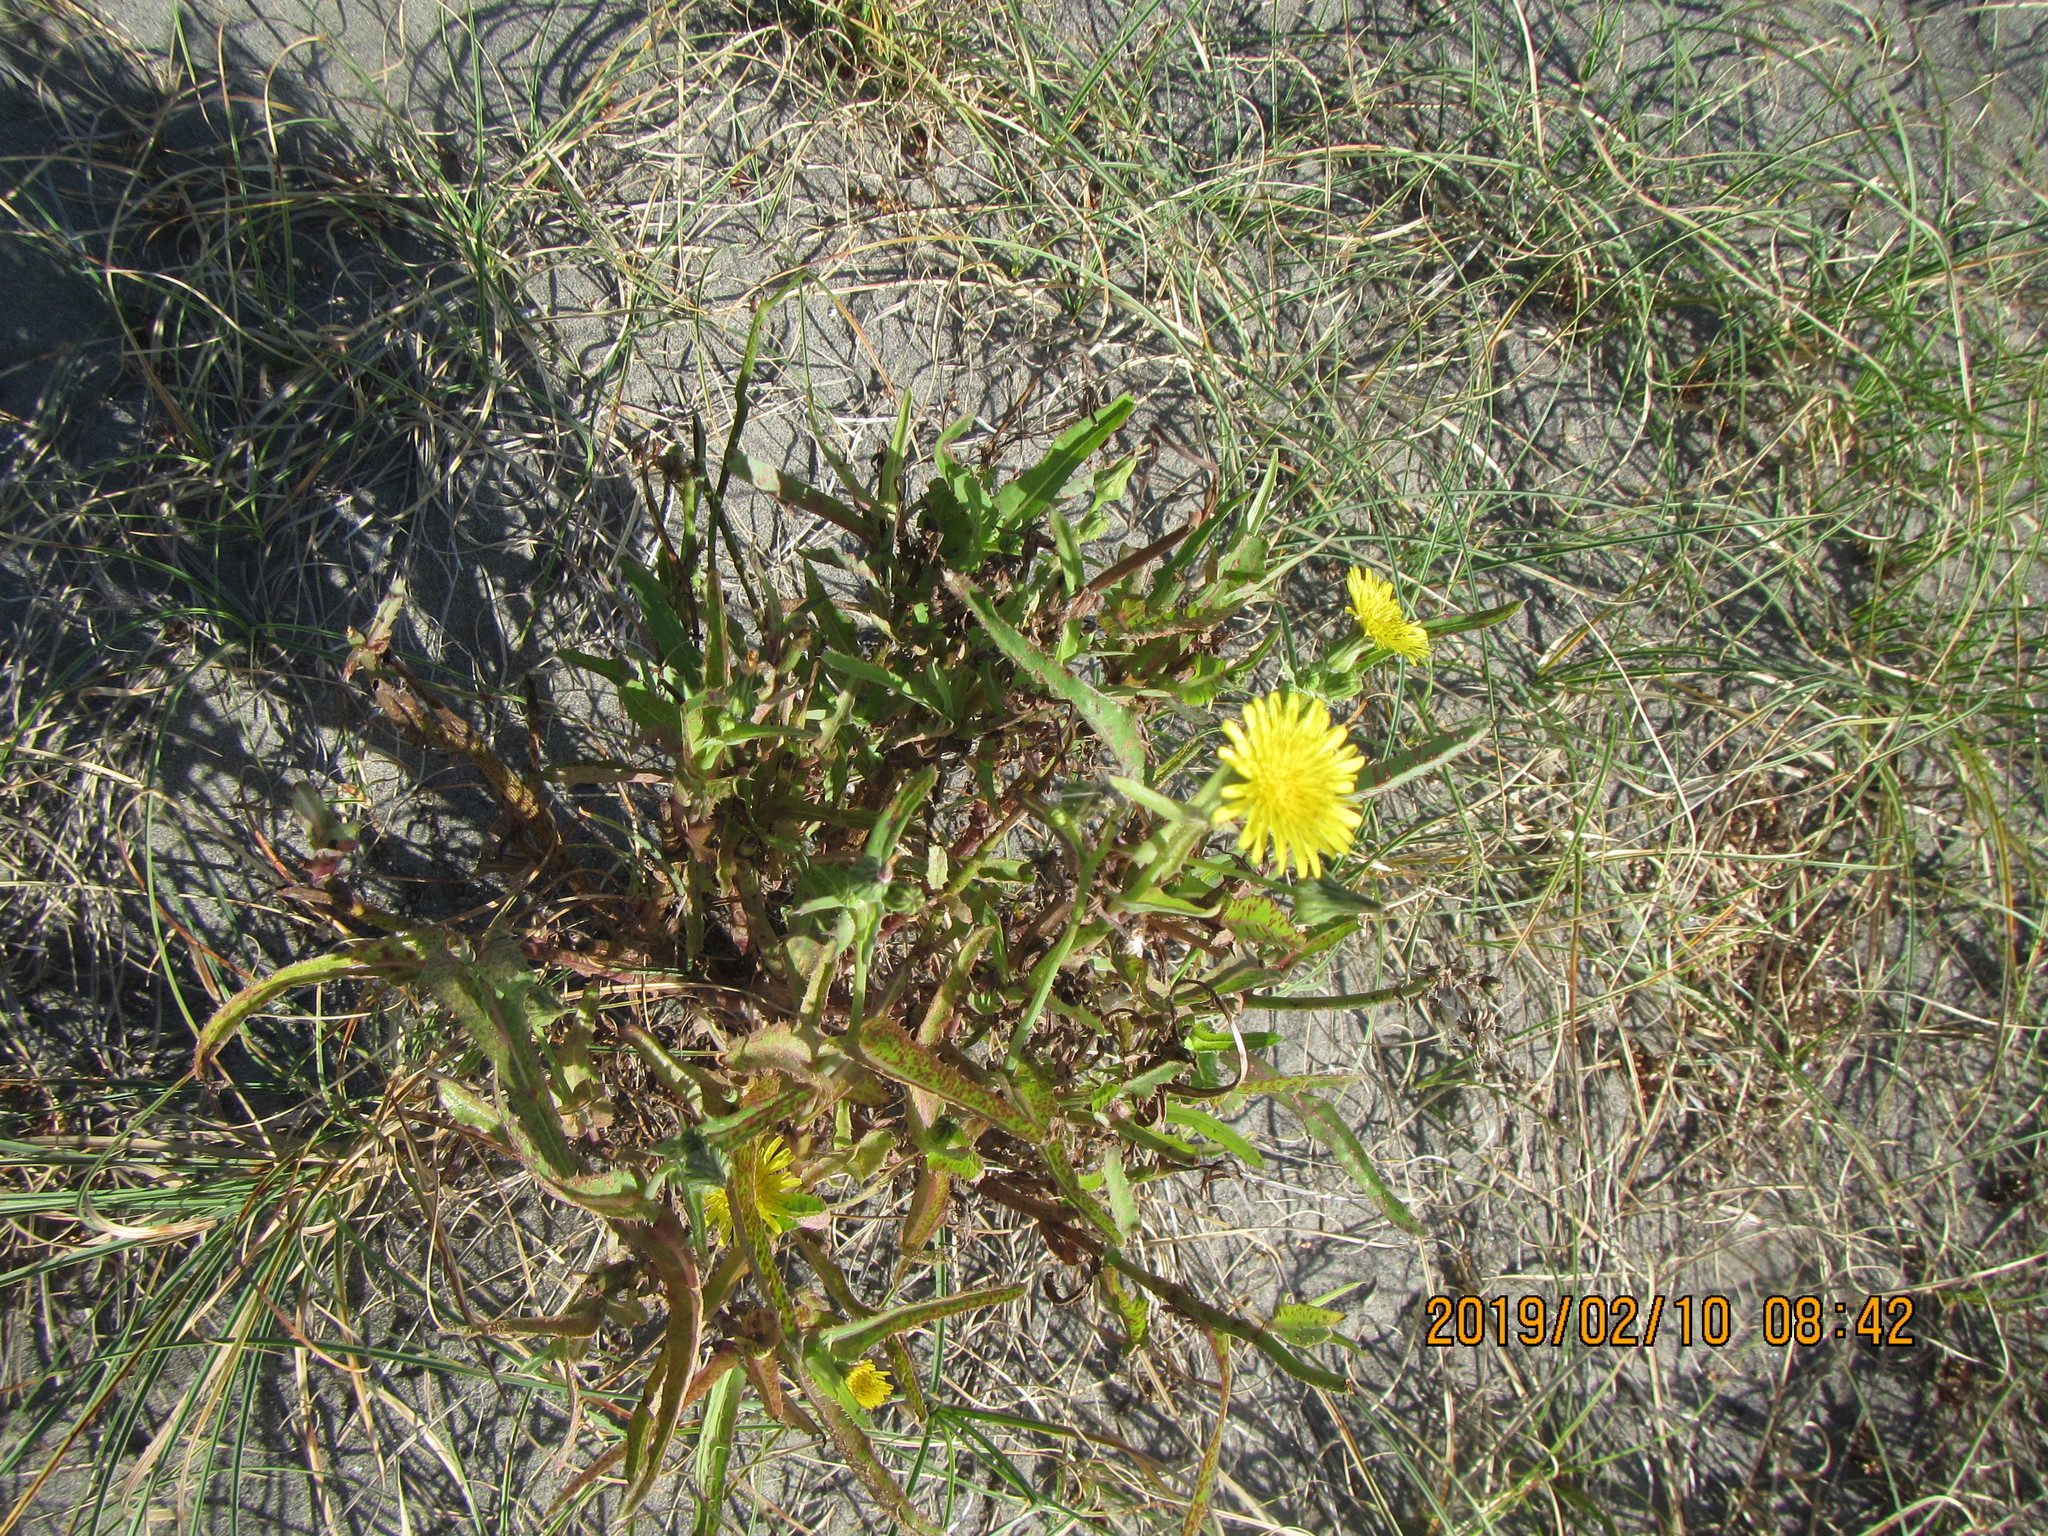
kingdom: Plantae
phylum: Tracheophyta
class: Magnoliopsida
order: Asterales
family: Asteraceae
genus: Sonchus
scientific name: Sonchus oleraceus
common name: Common sowthistle
